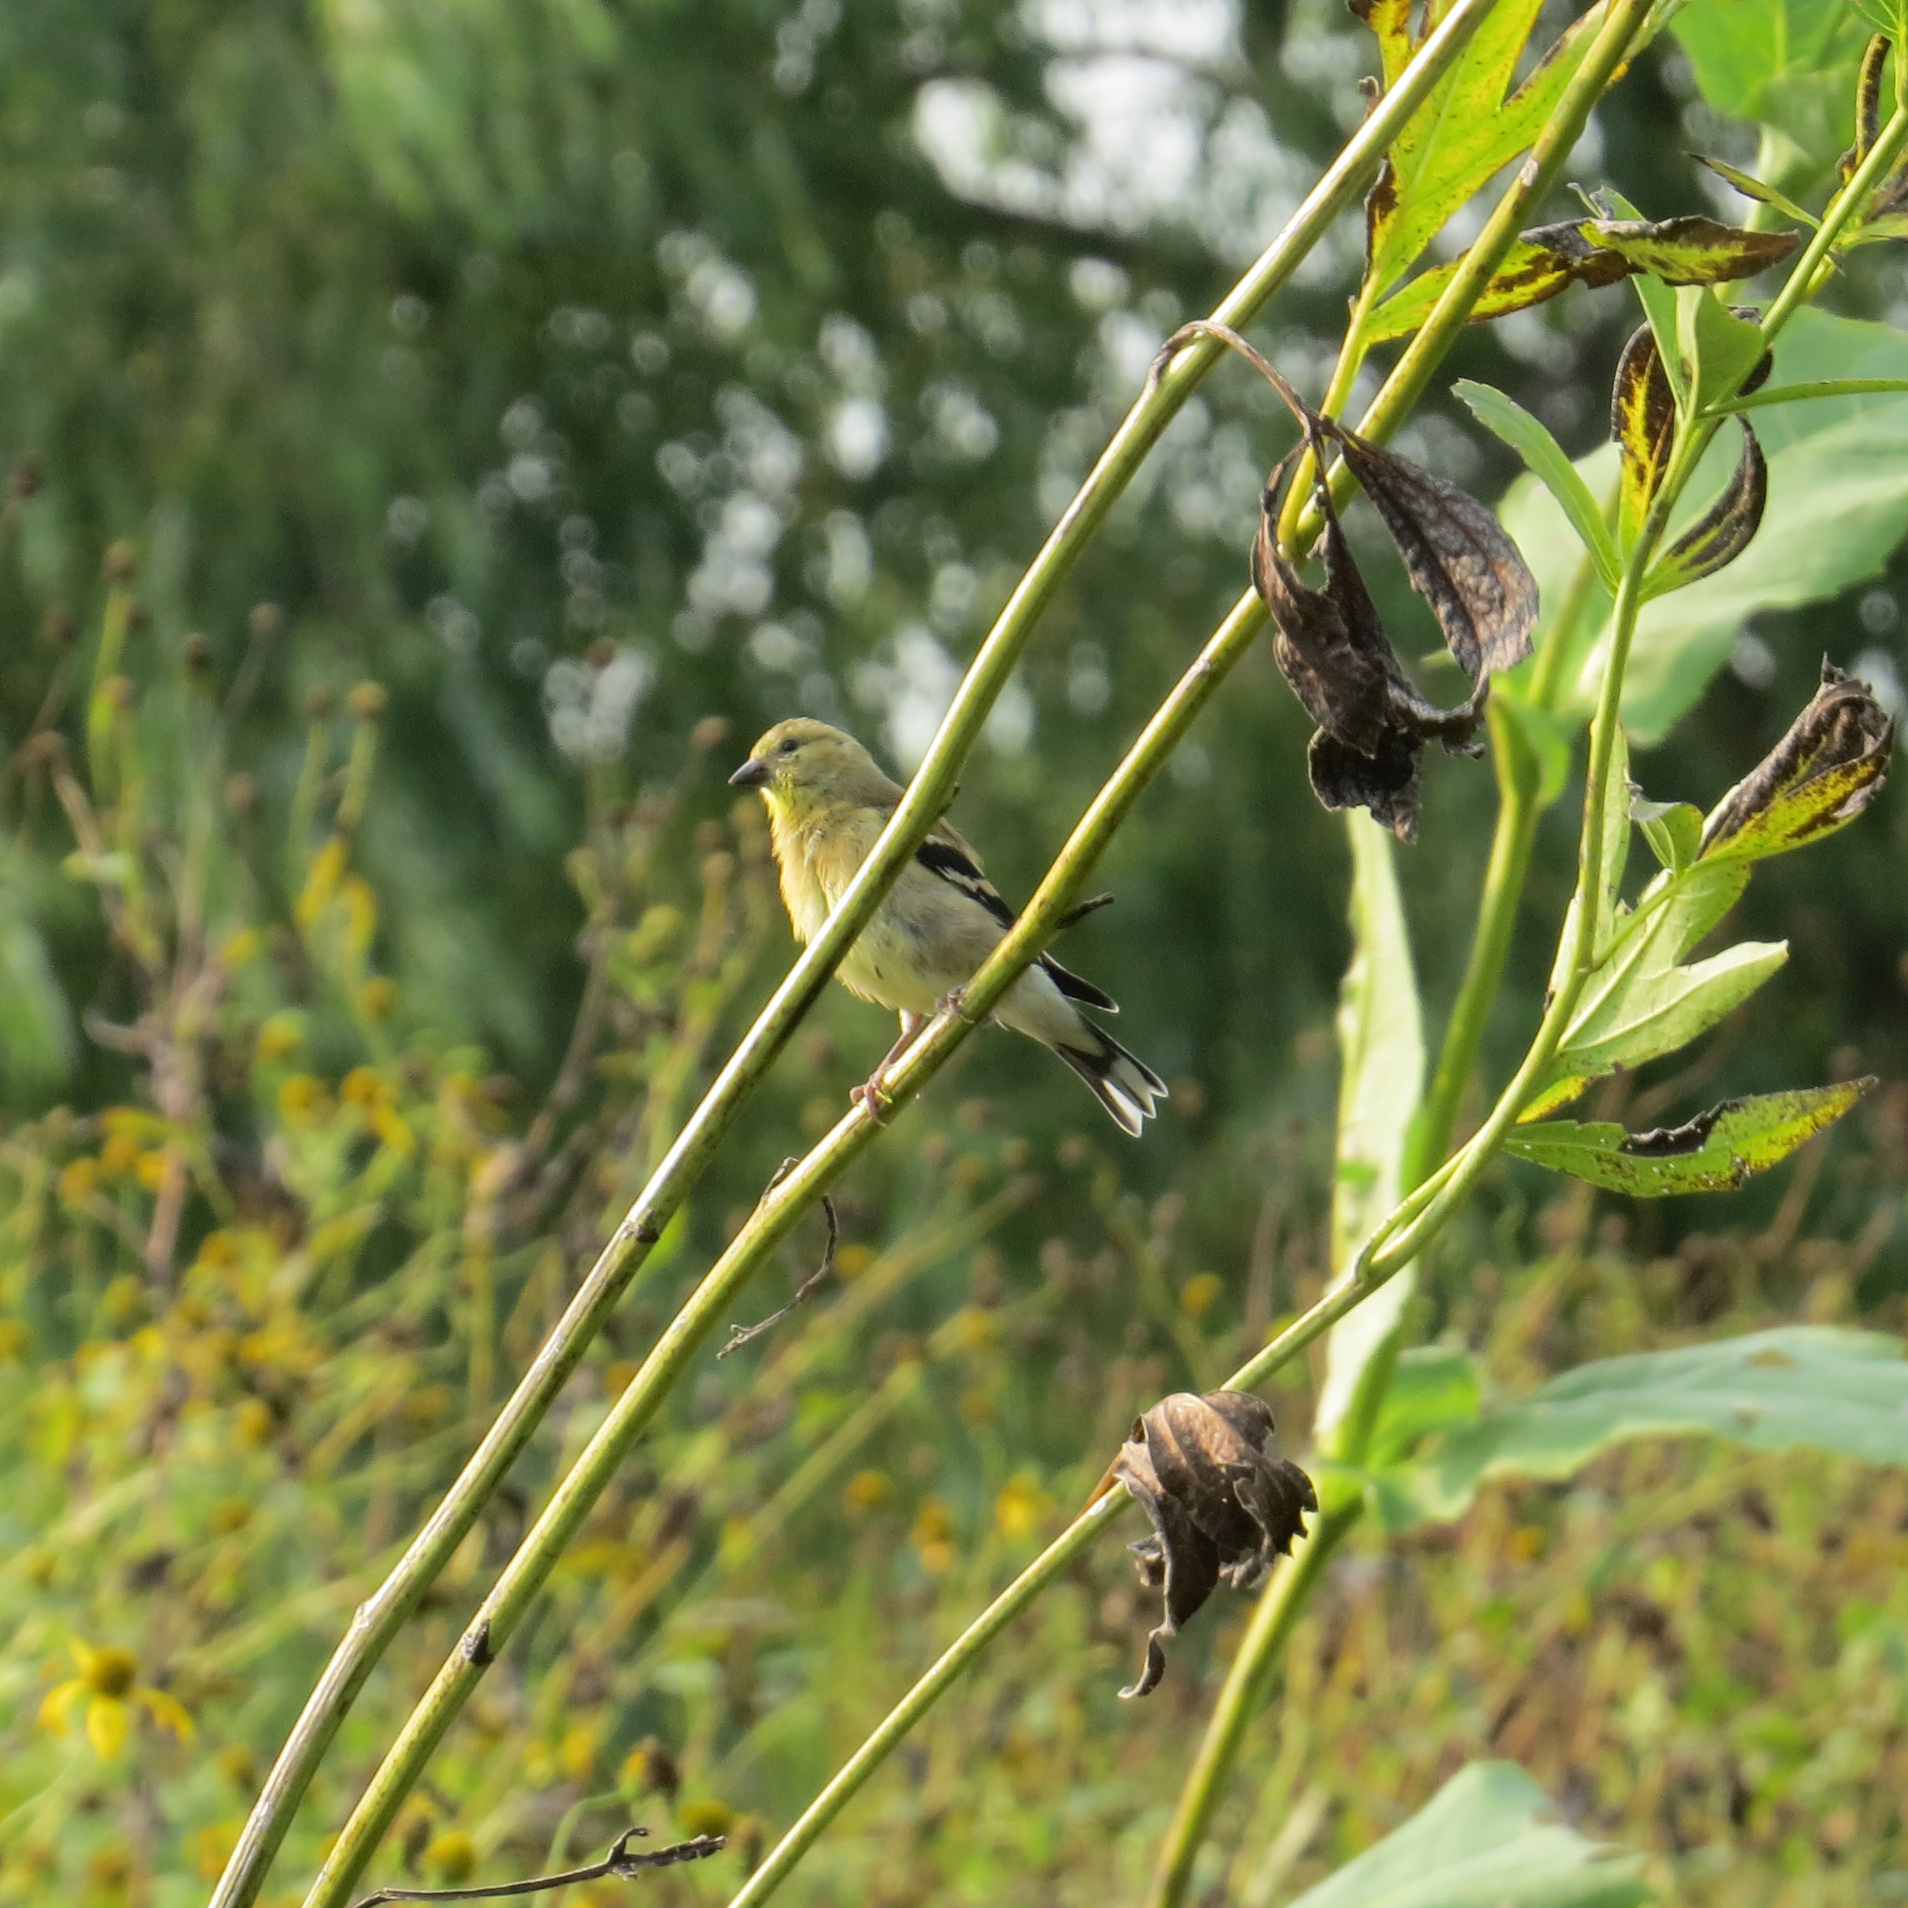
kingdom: Animalia
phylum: Chordata
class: Aves
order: Passeriformes
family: Fringillidae
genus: Spinus
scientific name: Spinus tristis
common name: American goldfinch
